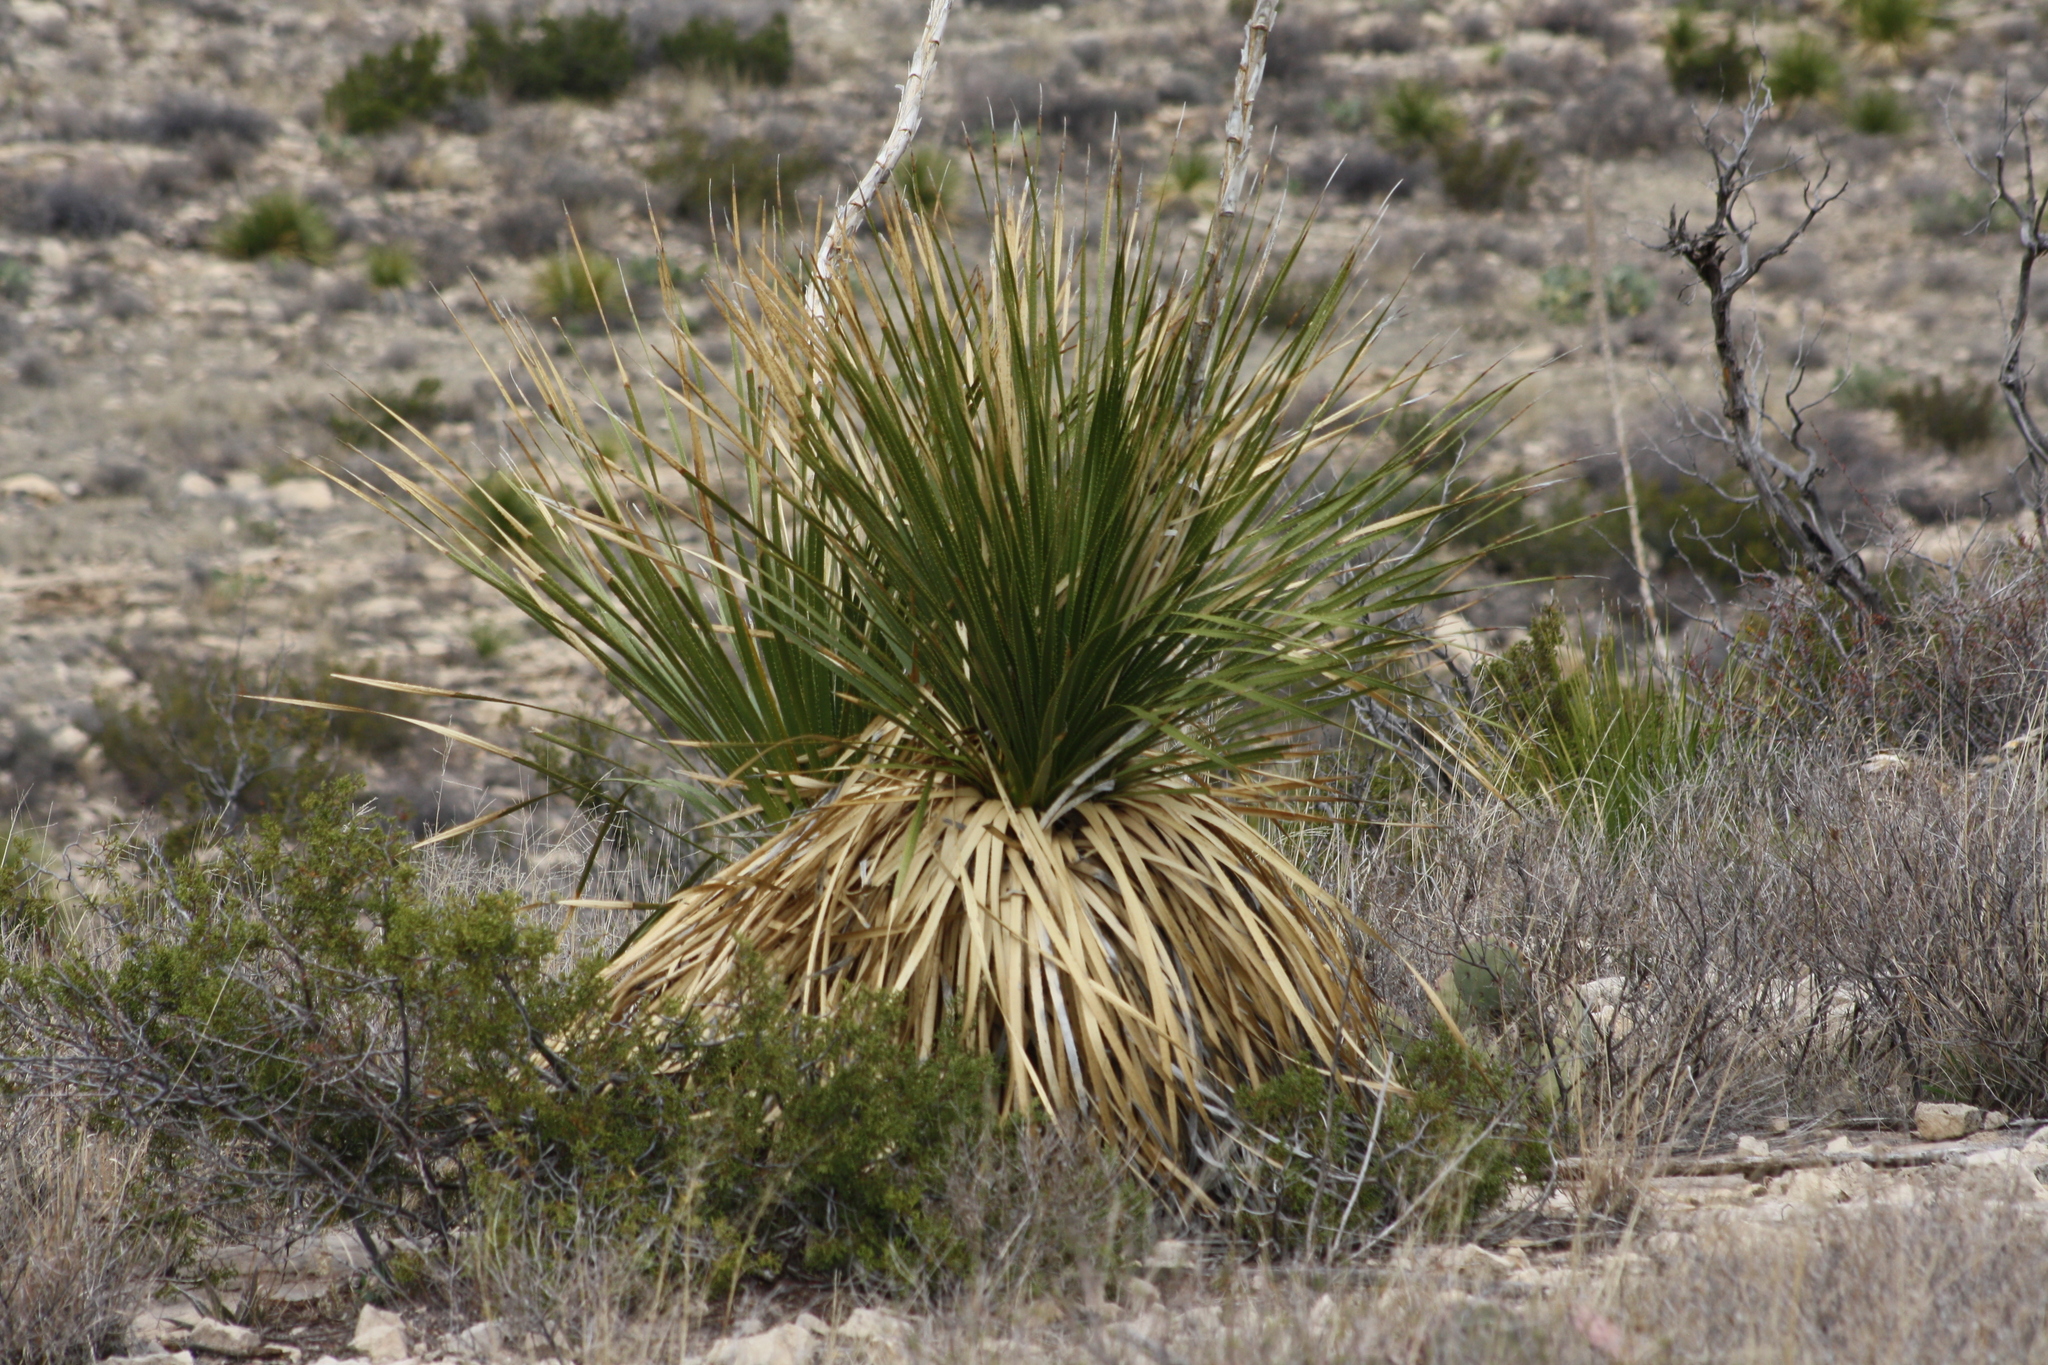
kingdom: Plantae
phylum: Tracheophyta
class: Liliopsida
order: Asparagales
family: Asparagaceae
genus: Dasylirion
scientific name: Dasylirion leiophyllum
